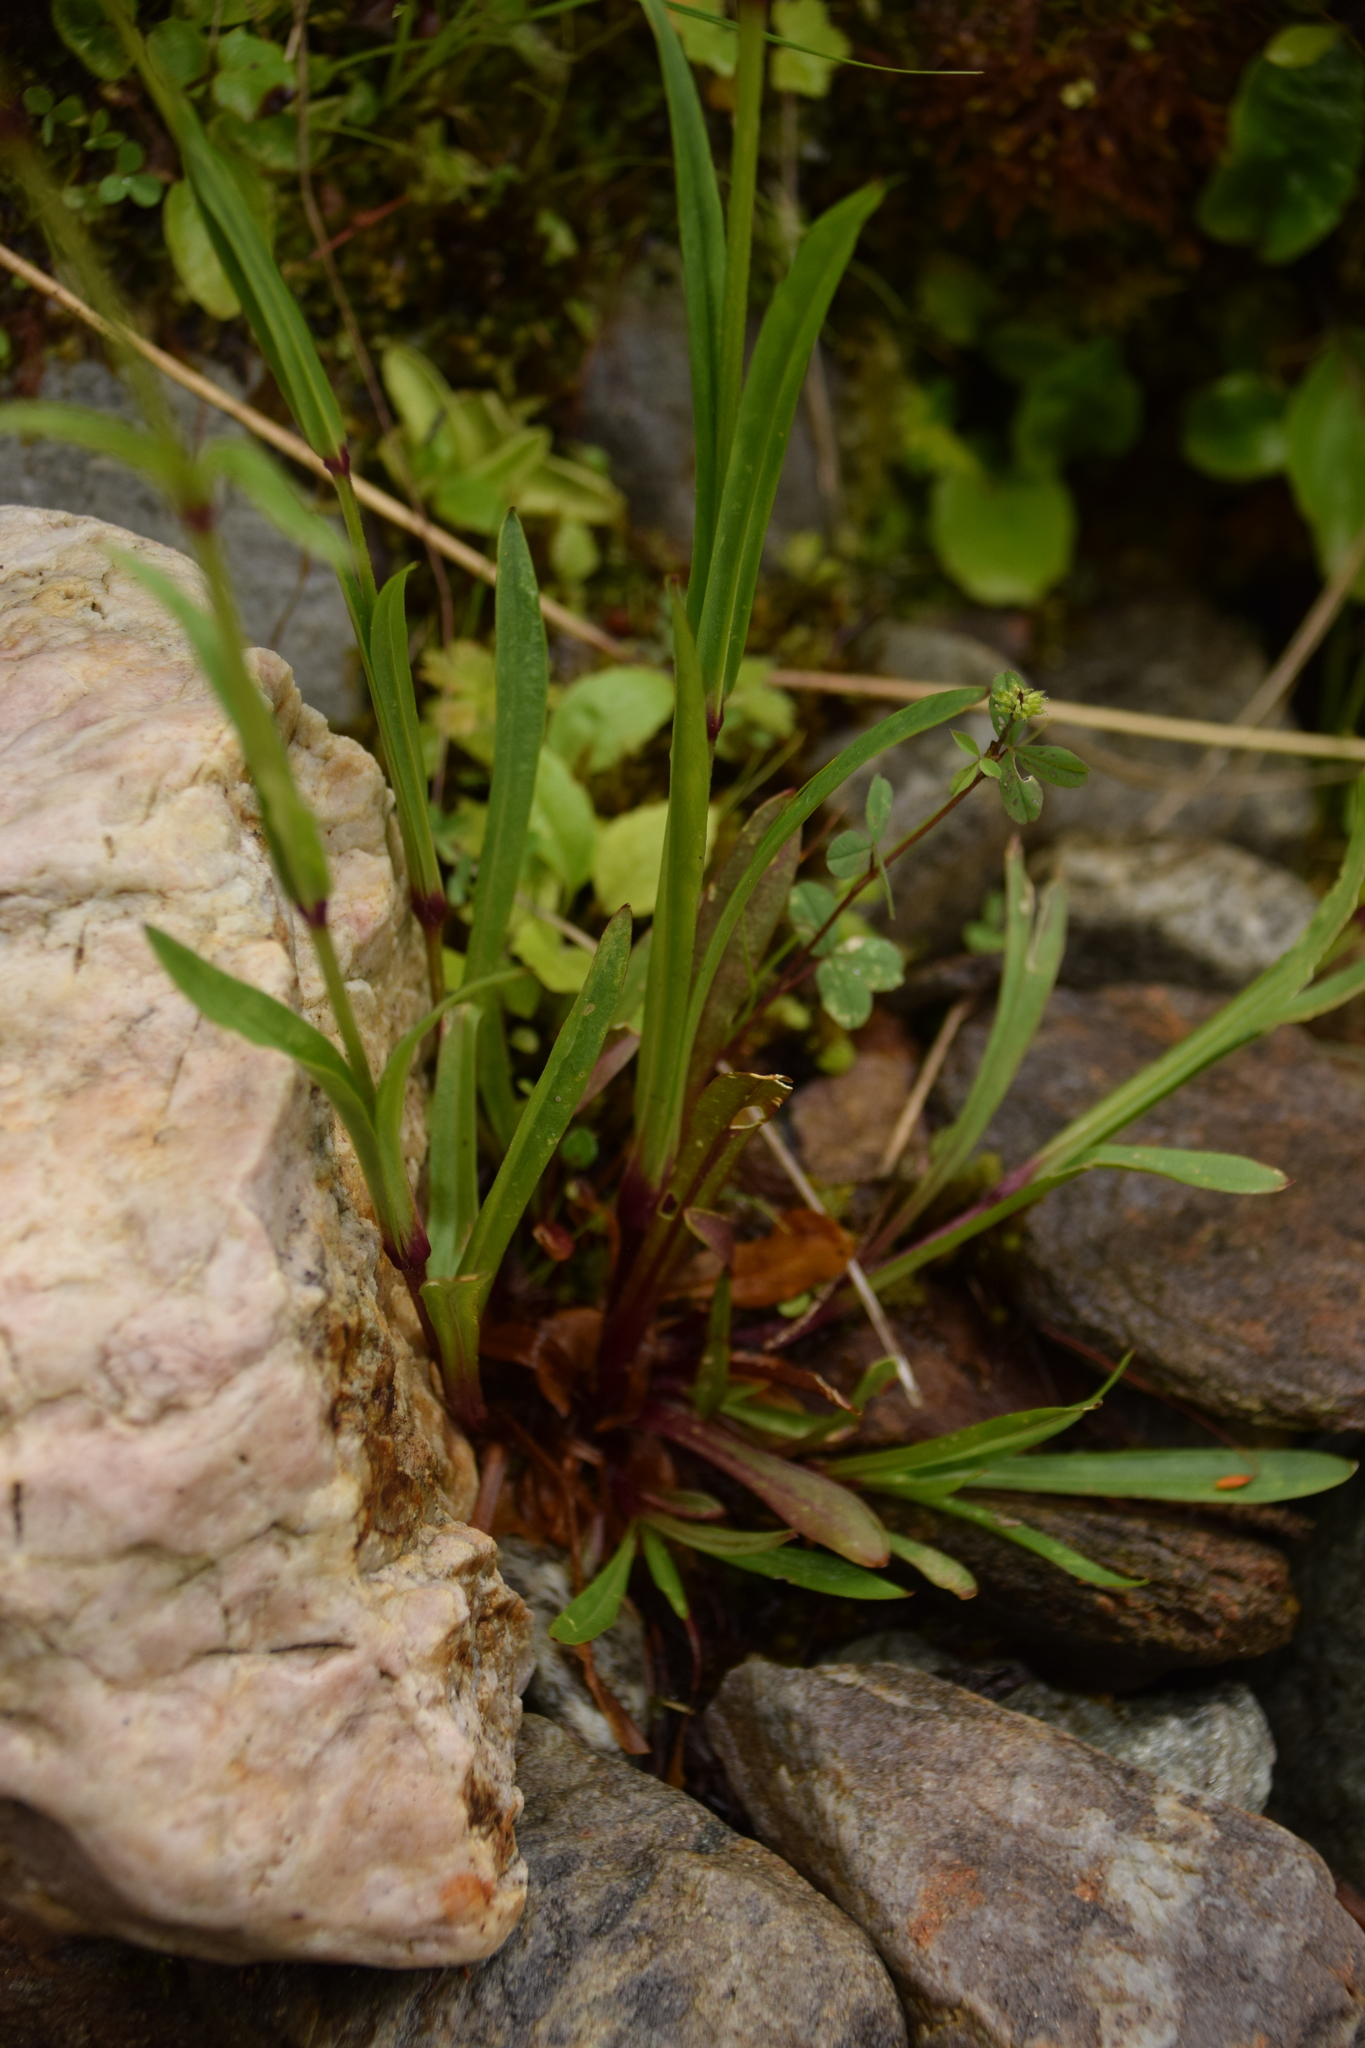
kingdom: Plantae
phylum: Tracheophyta
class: Magnoliopsida
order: Caryophyllales
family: Caryophyllaceae
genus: Silene
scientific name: Silene flos-cuculi
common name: Ragged-robin
